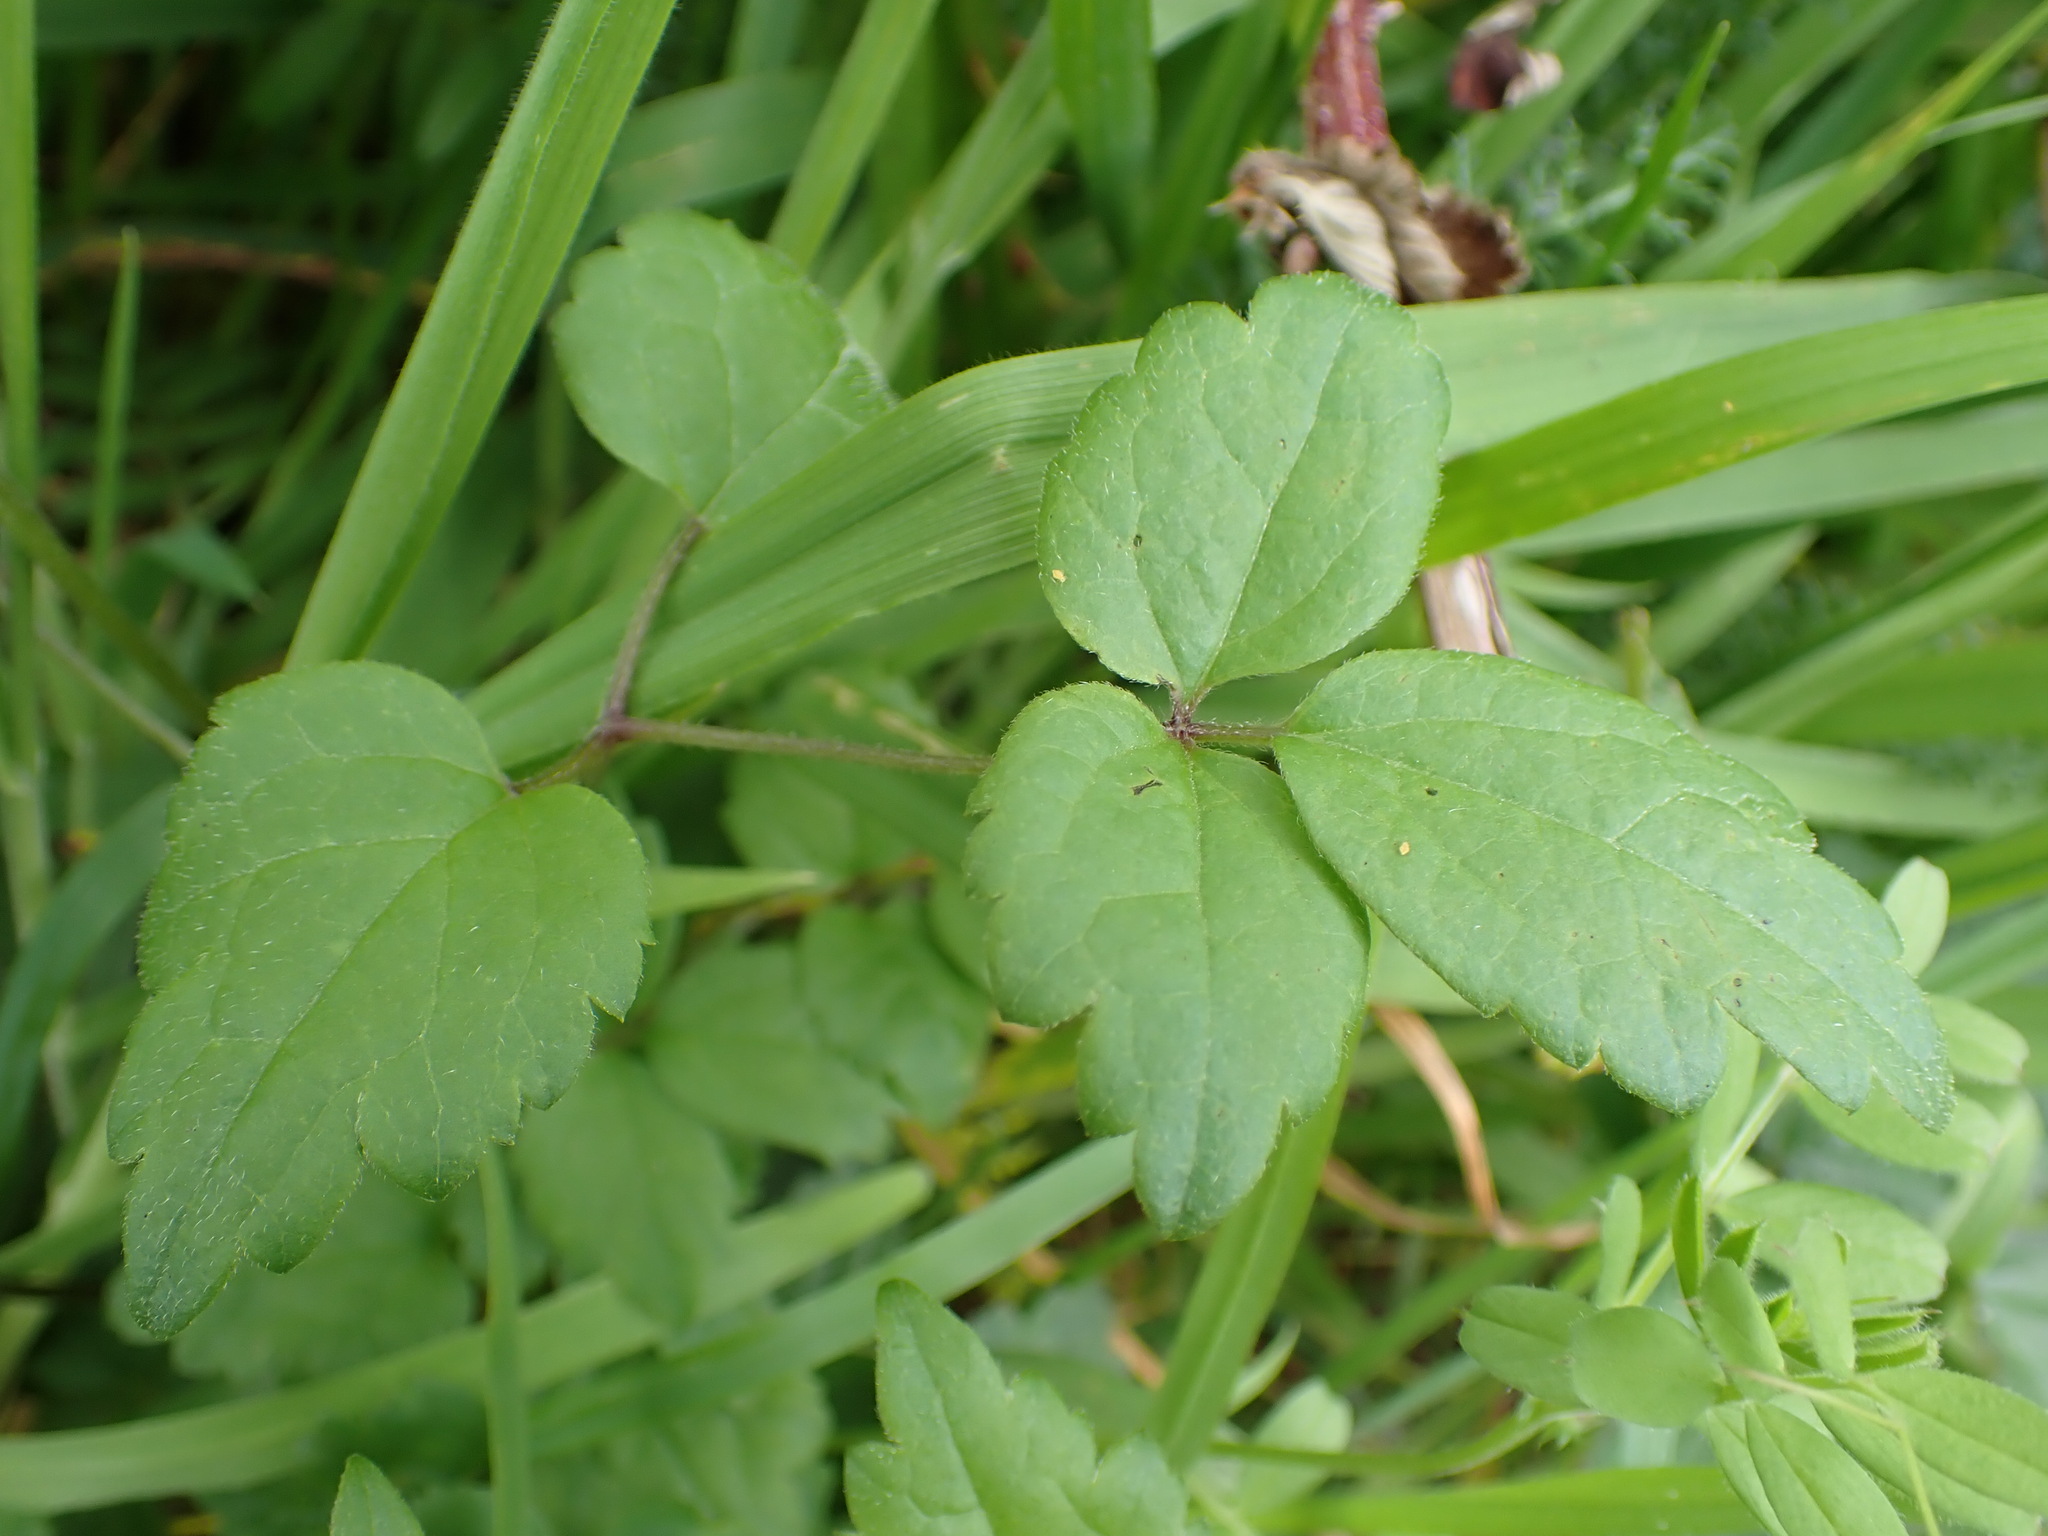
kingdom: Plantae
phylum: Tracheophyta
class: Magnoliopsida
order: Ranunculales
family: Ranunculaceae
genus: Clematis
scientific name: Clematis vitalba
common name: Evergreen clematis
